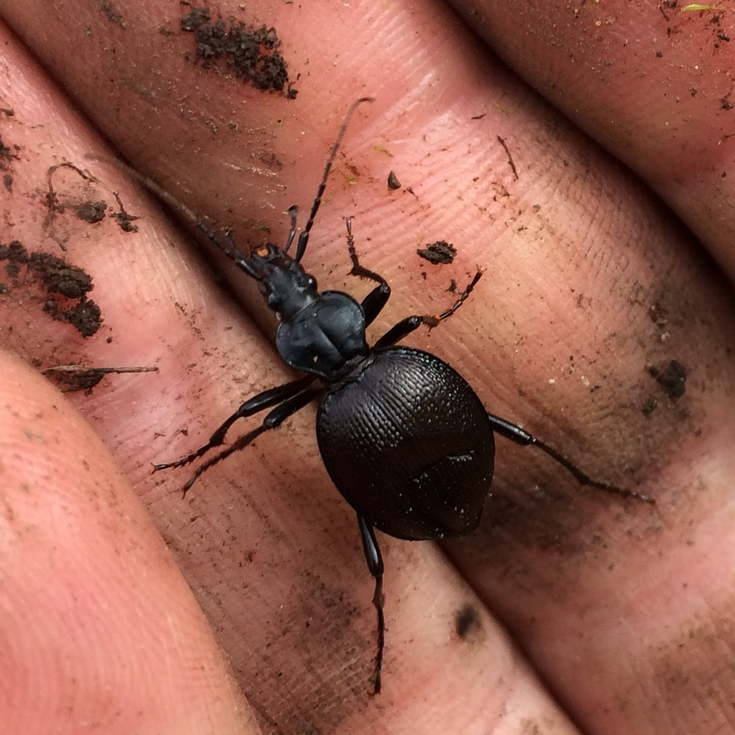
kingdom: Animalia
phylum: Arthropoda
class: Insecta
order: Coleoptera
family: Carabidae
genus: Scaphinotus
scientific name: Scaphinotus interruptus
